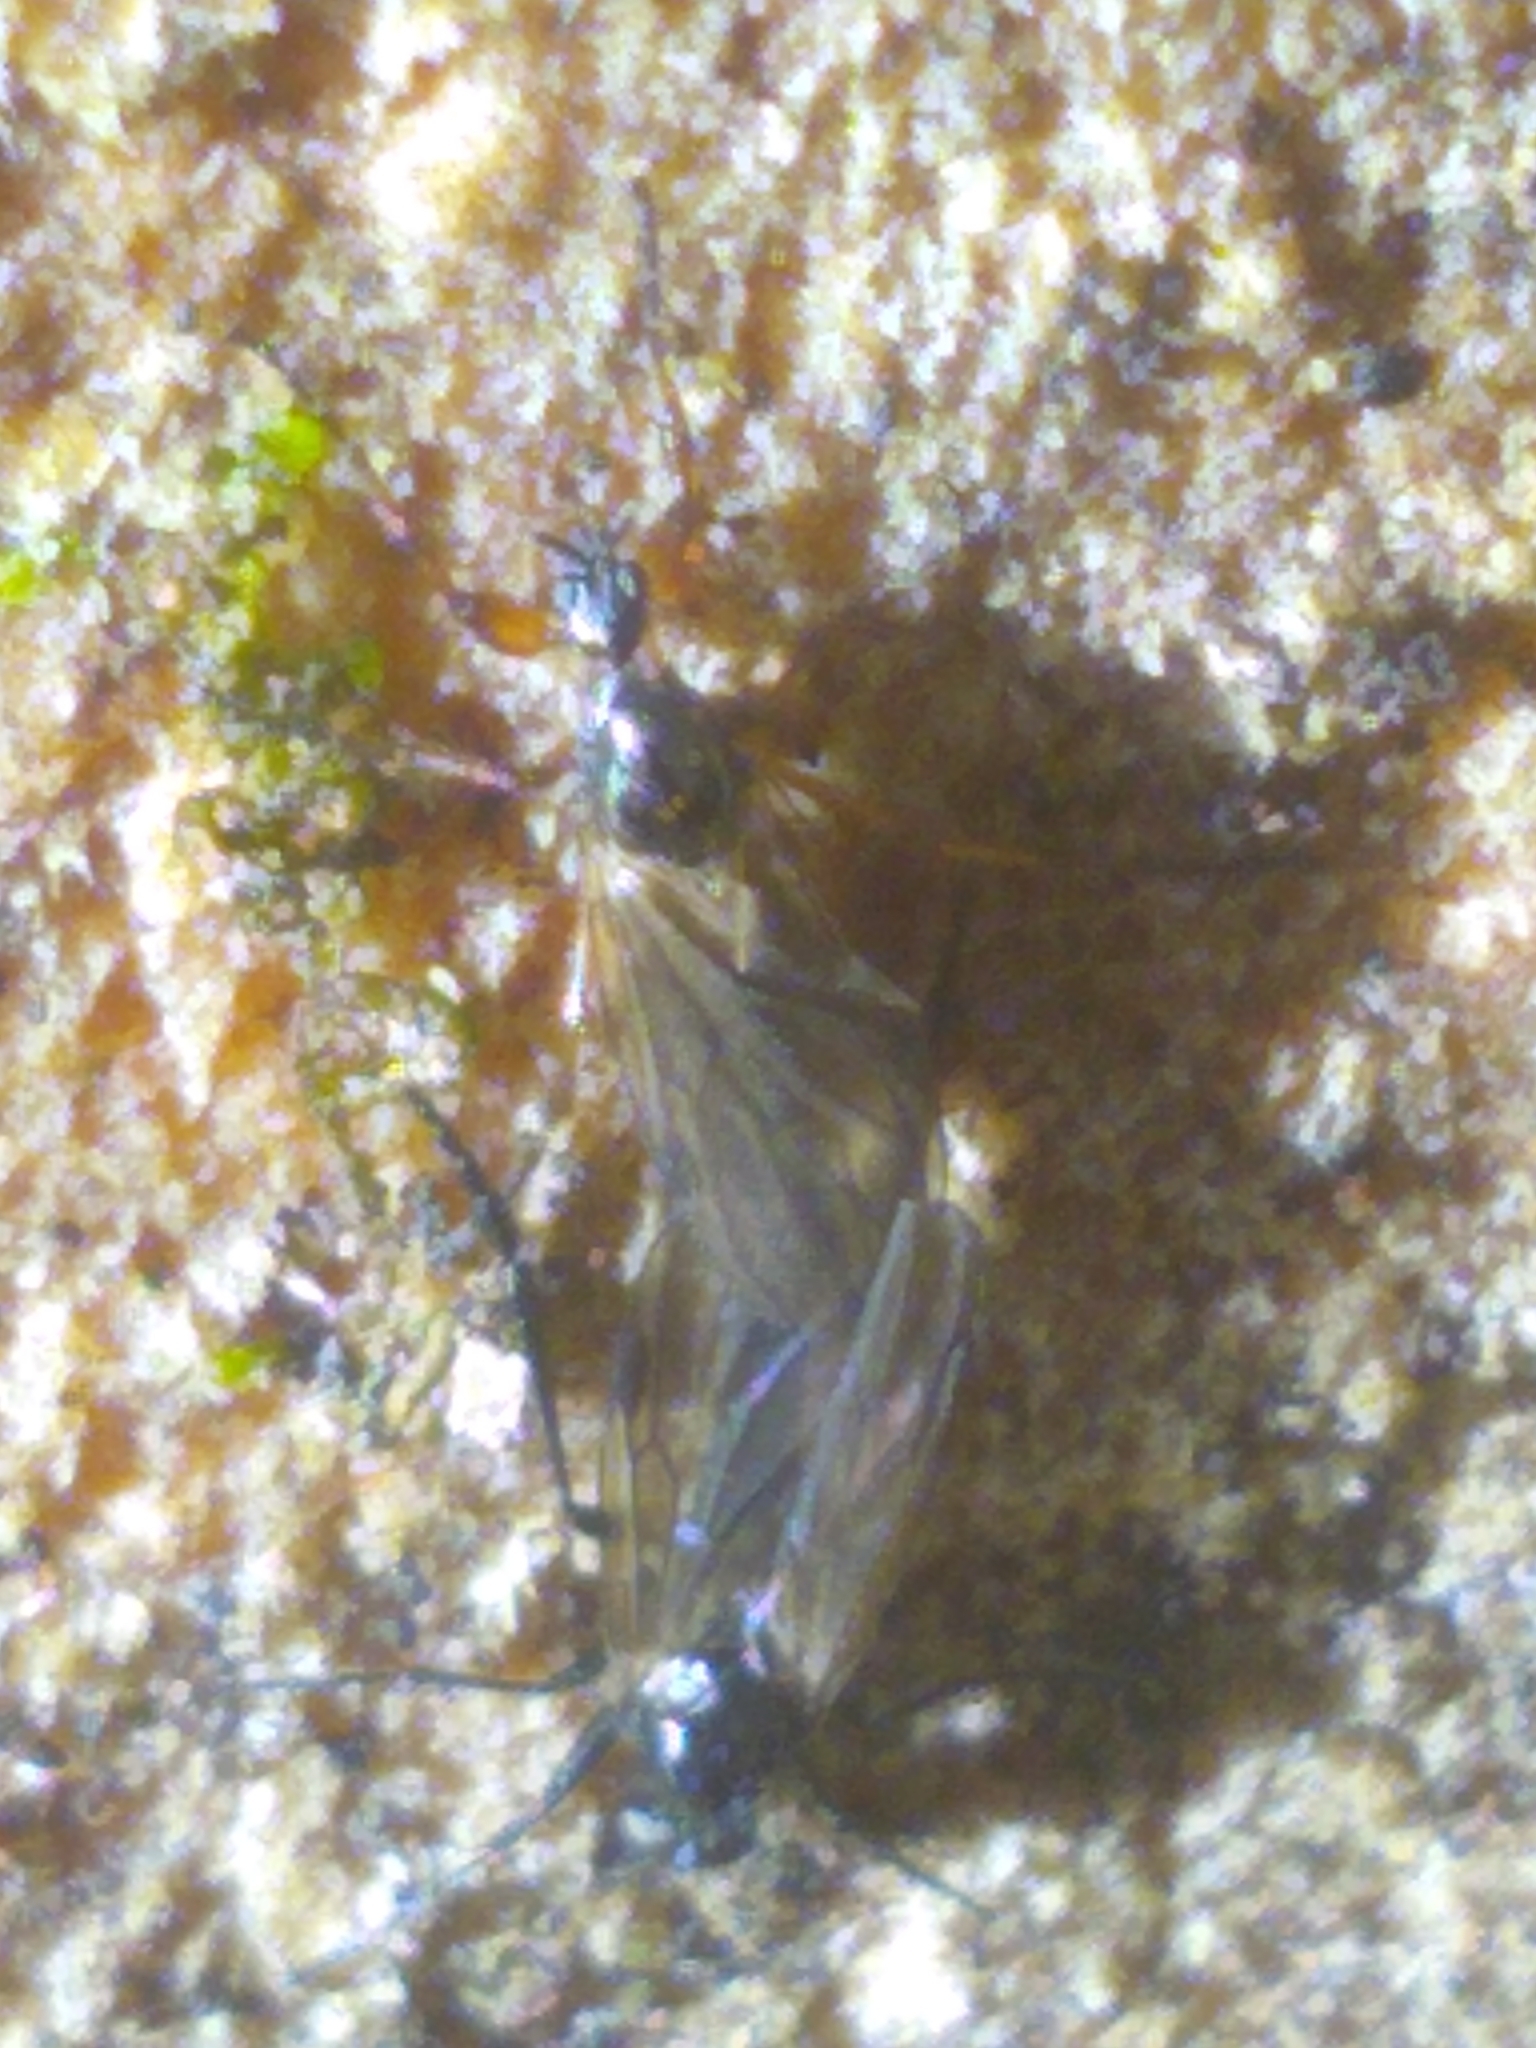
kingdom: Animalia
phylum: Arthropoda
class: Insecta
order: Diptera
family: Bibionidae
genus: Bibio
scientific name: Bibio slossonae
